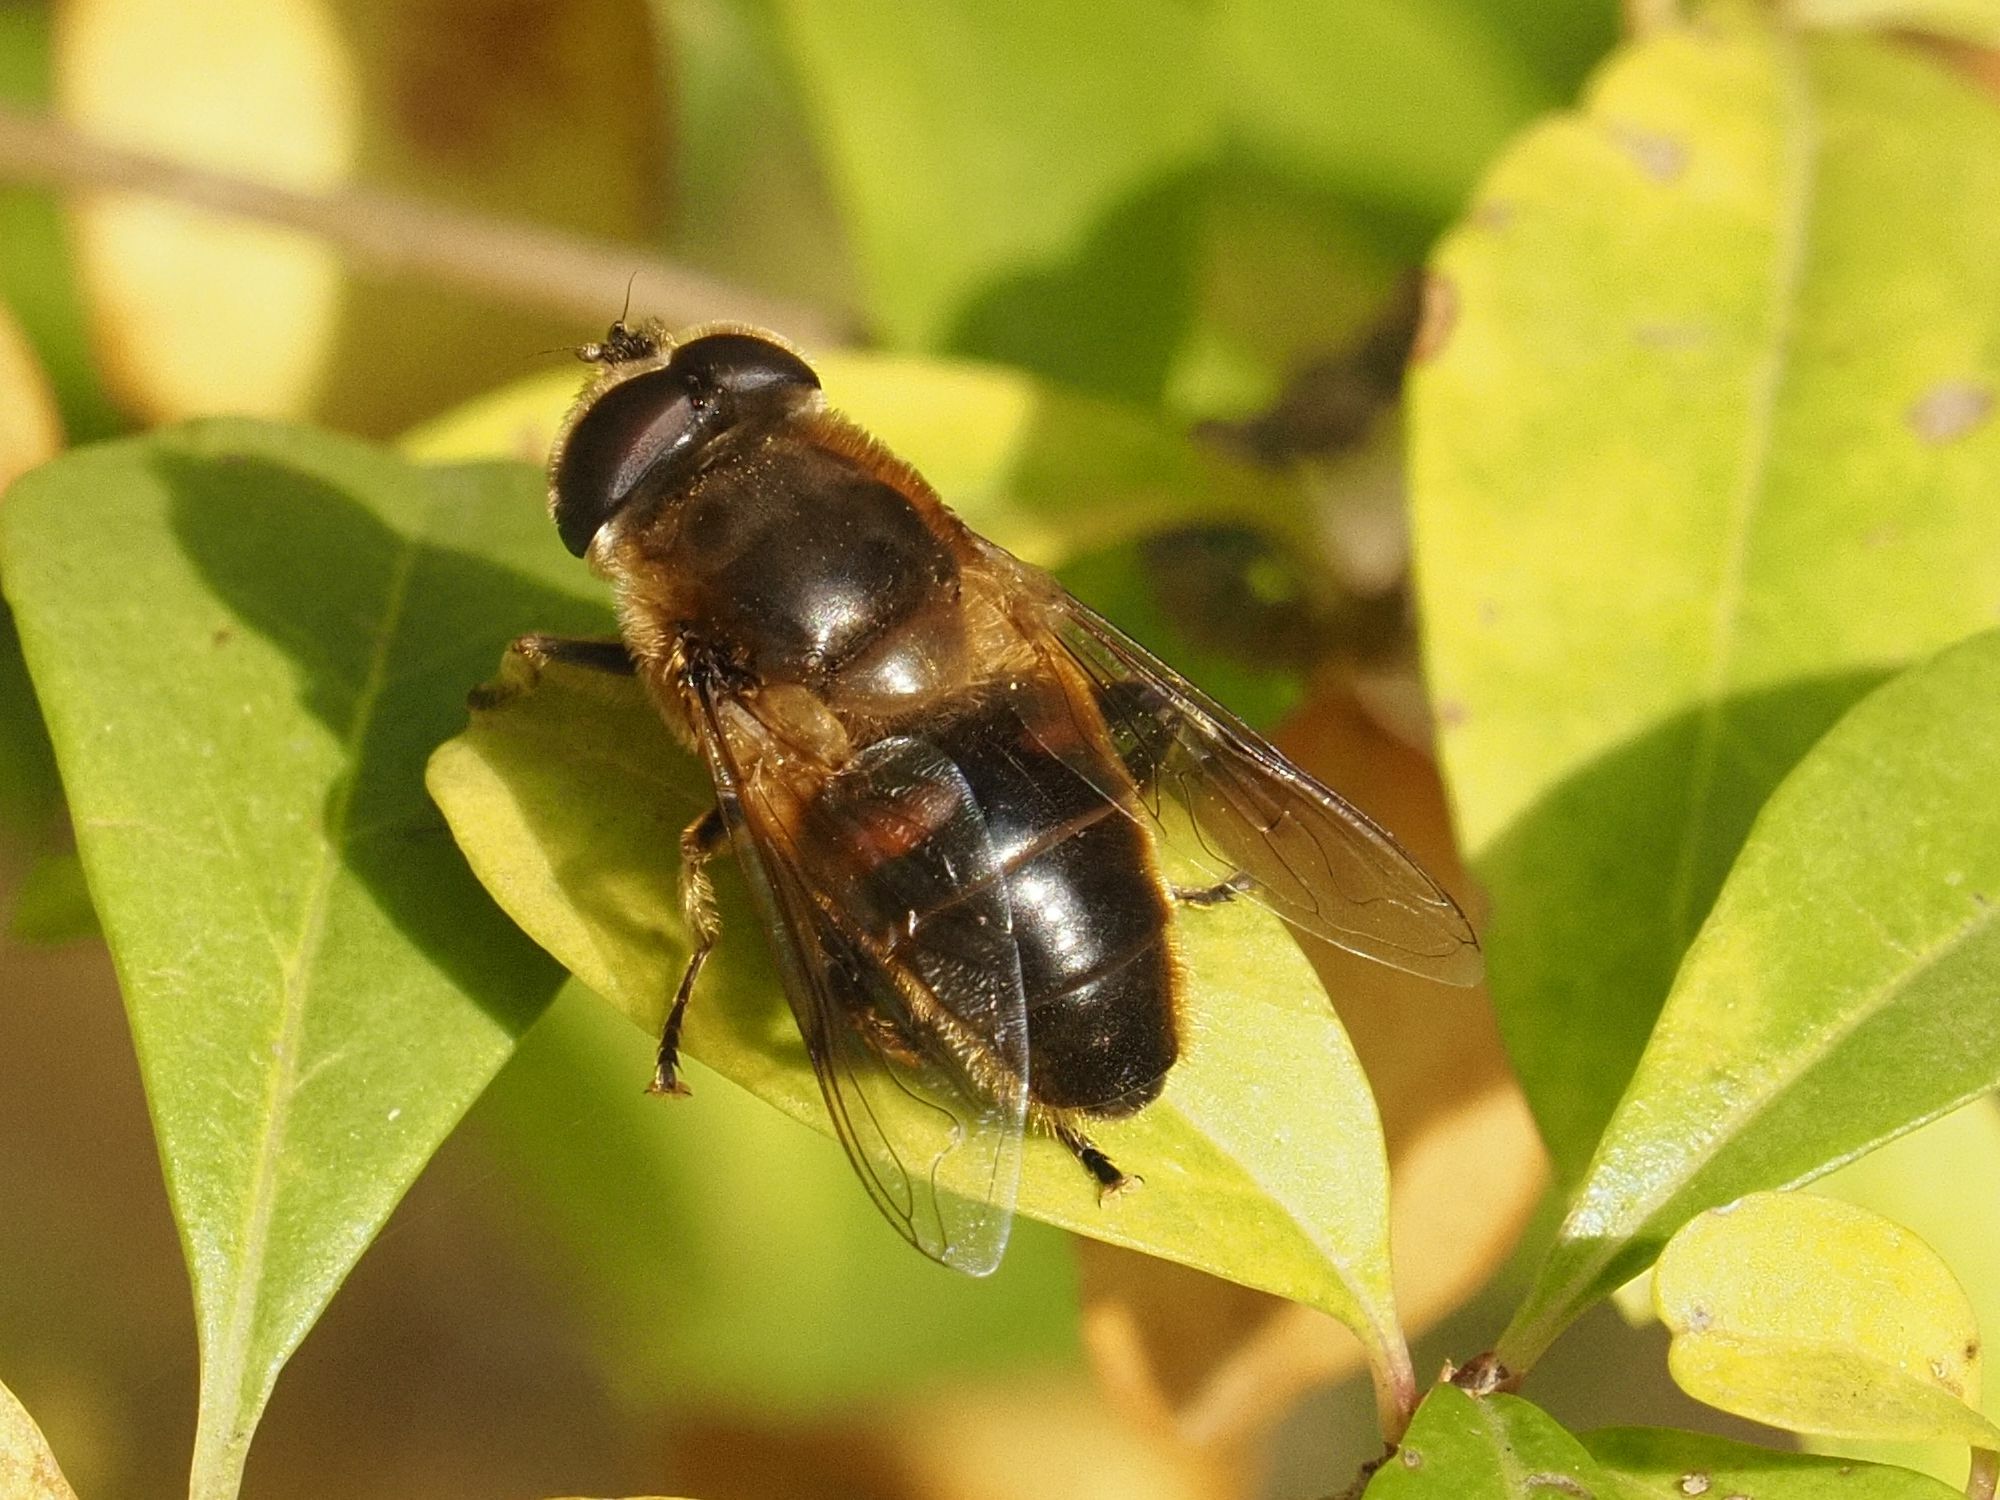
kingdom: Animalia
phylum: Arthropoda
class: Insecta
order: Diptera
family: Syrphidae
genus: Eristalis
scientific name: Eristalis tenax
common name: Drone fly
